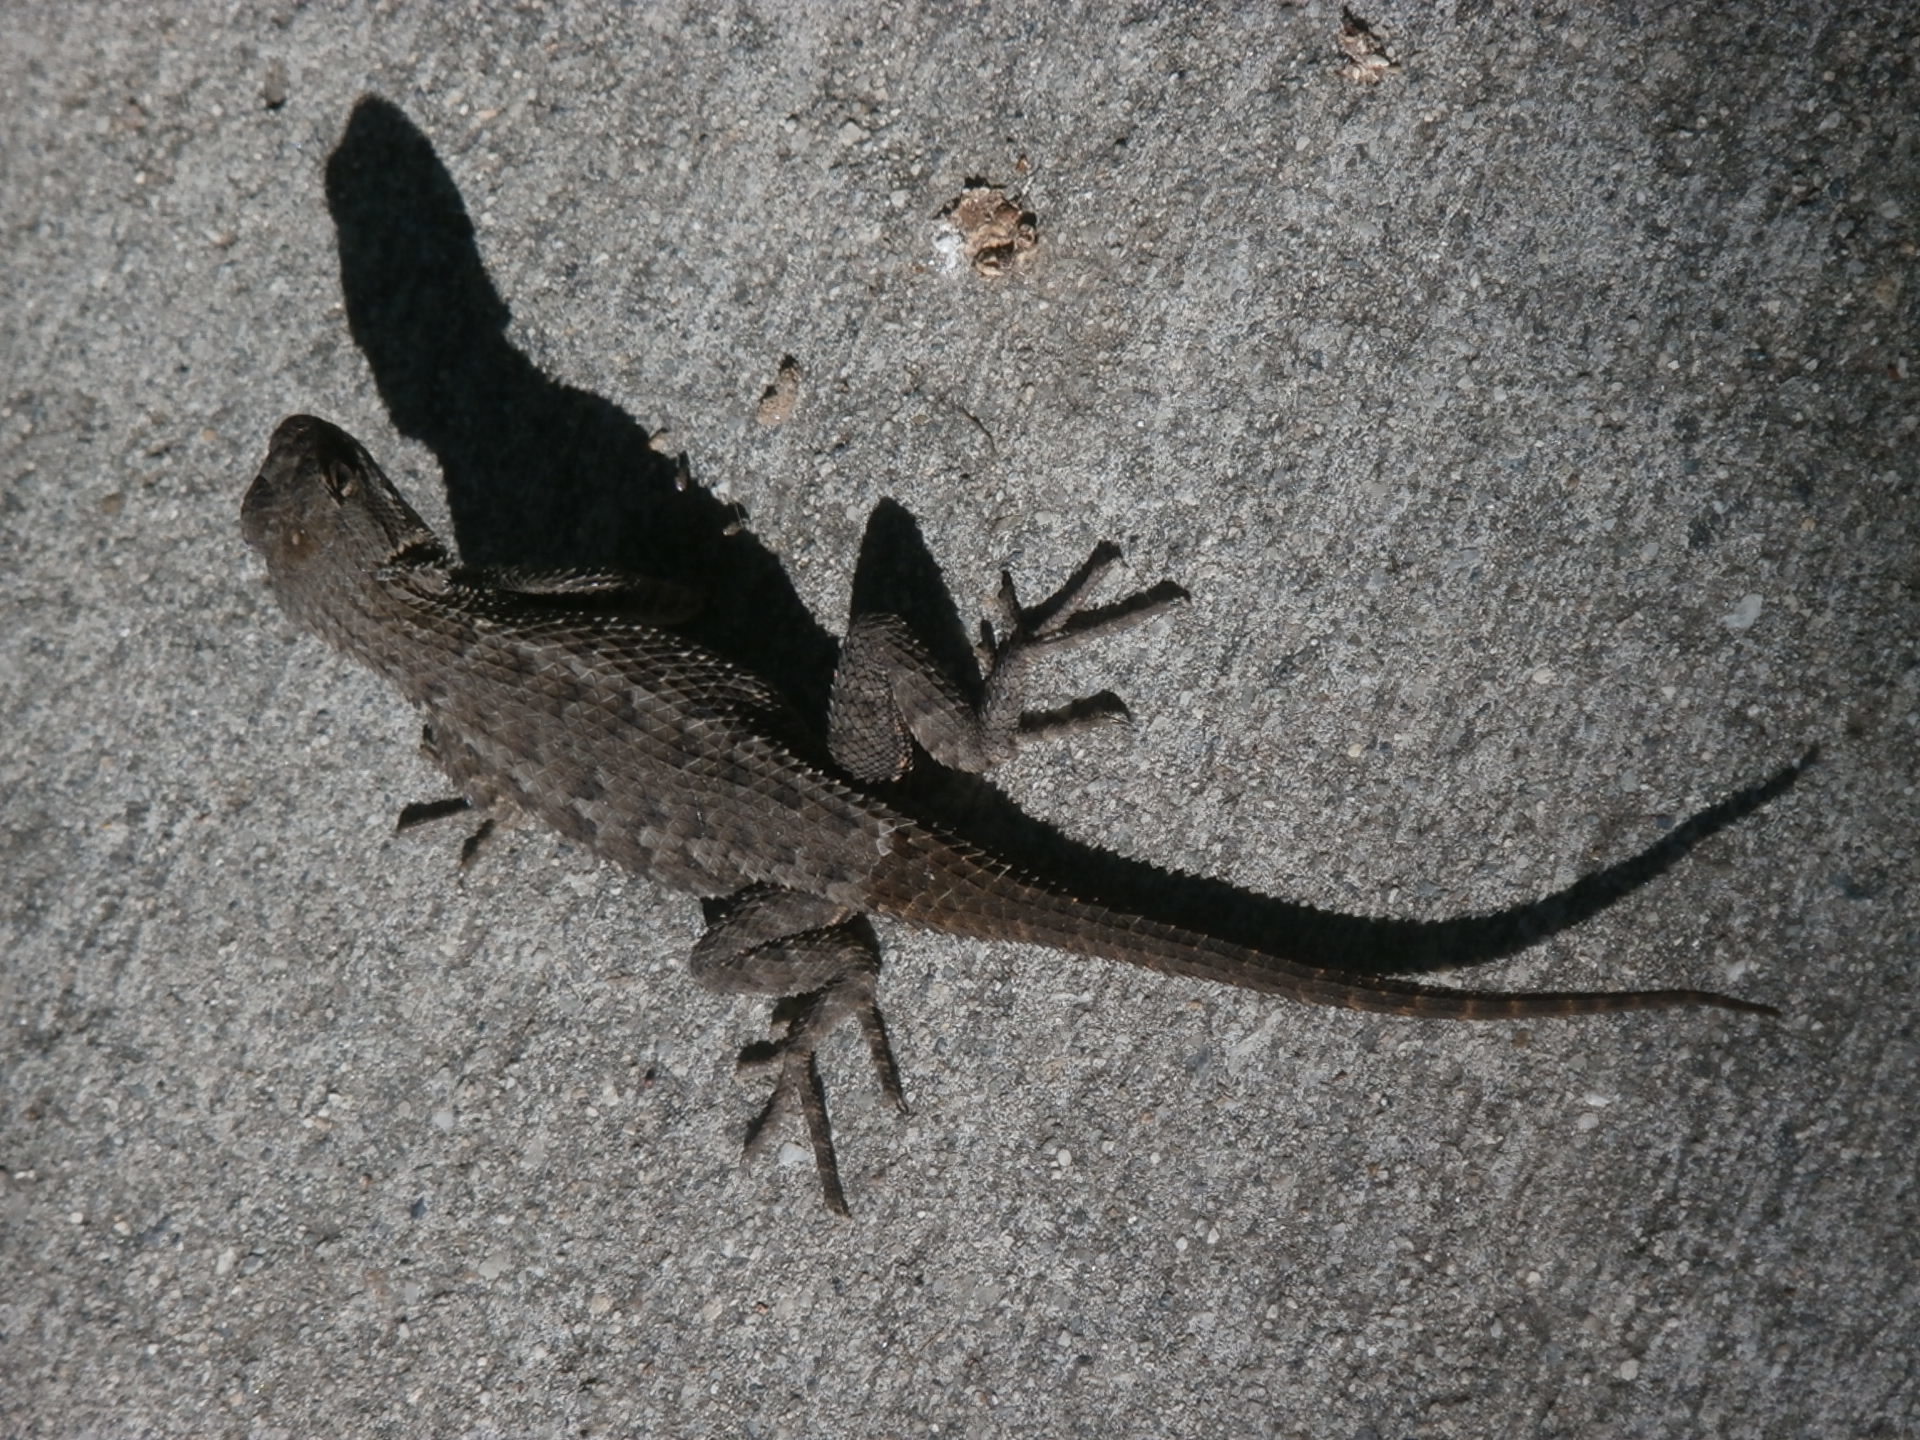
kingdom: Animalia
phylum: Chordata
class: Squamata
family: Phrynosomatidae
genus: Sceloporus
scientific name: Sceloporus occidentalis
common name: Western fence lizard
